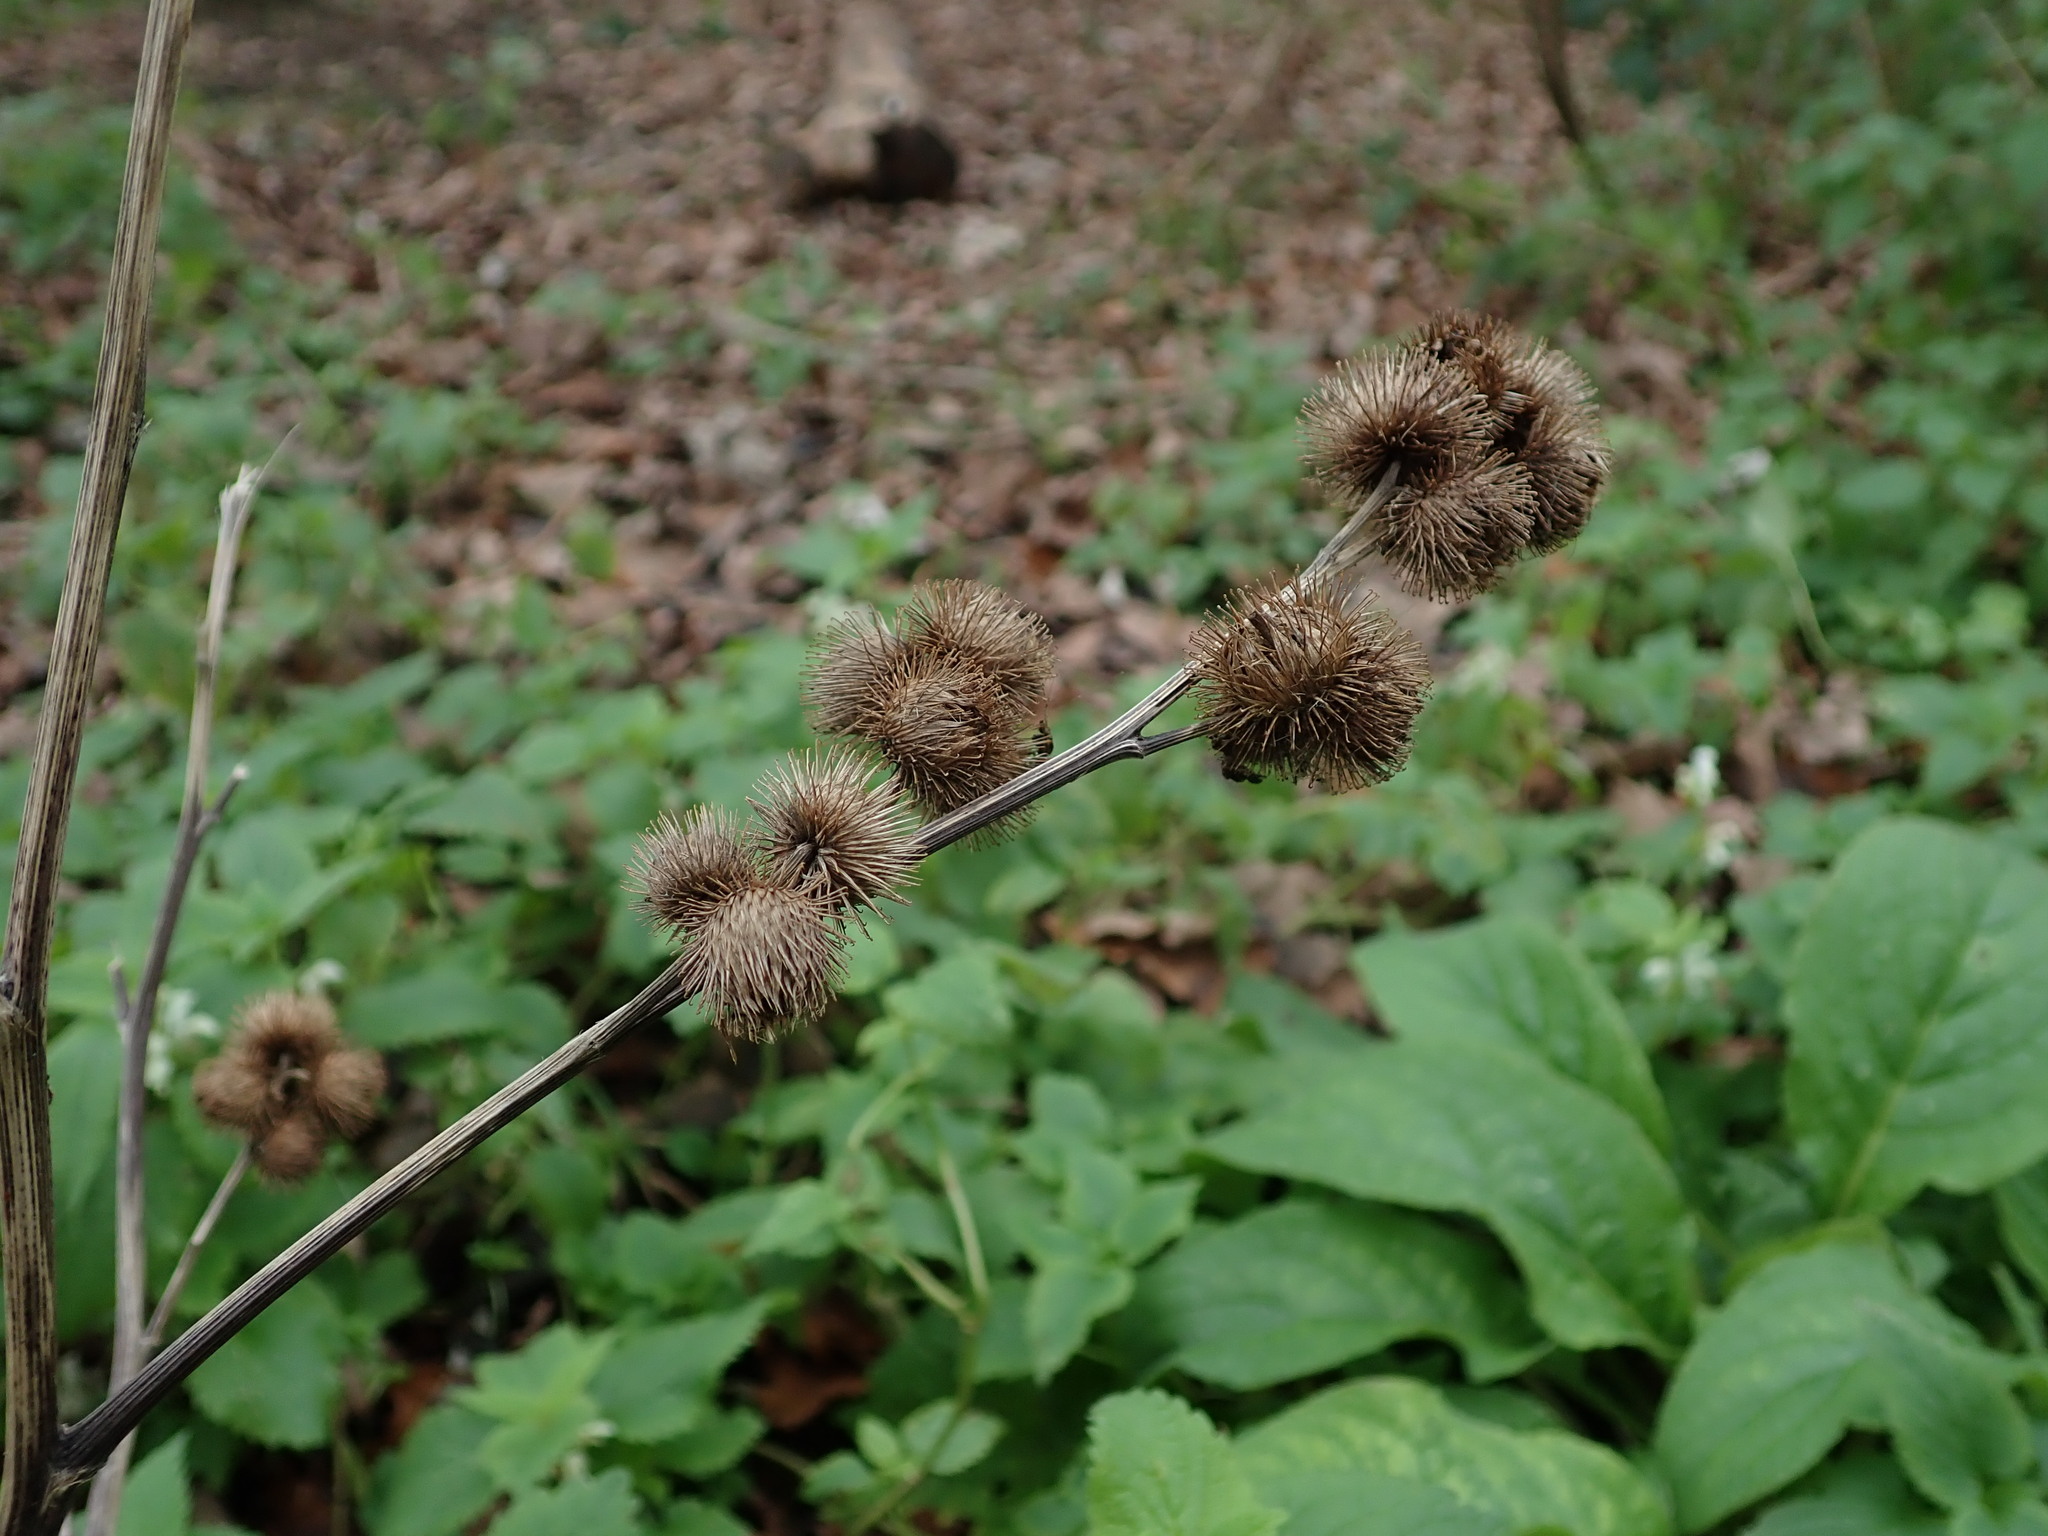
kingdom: Plantae
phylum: Tracheophyta
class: Magnoliopsida
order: Asterales
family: Asteraceae
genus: Arctium
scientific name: Arctium minus
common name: Lesser burdock
